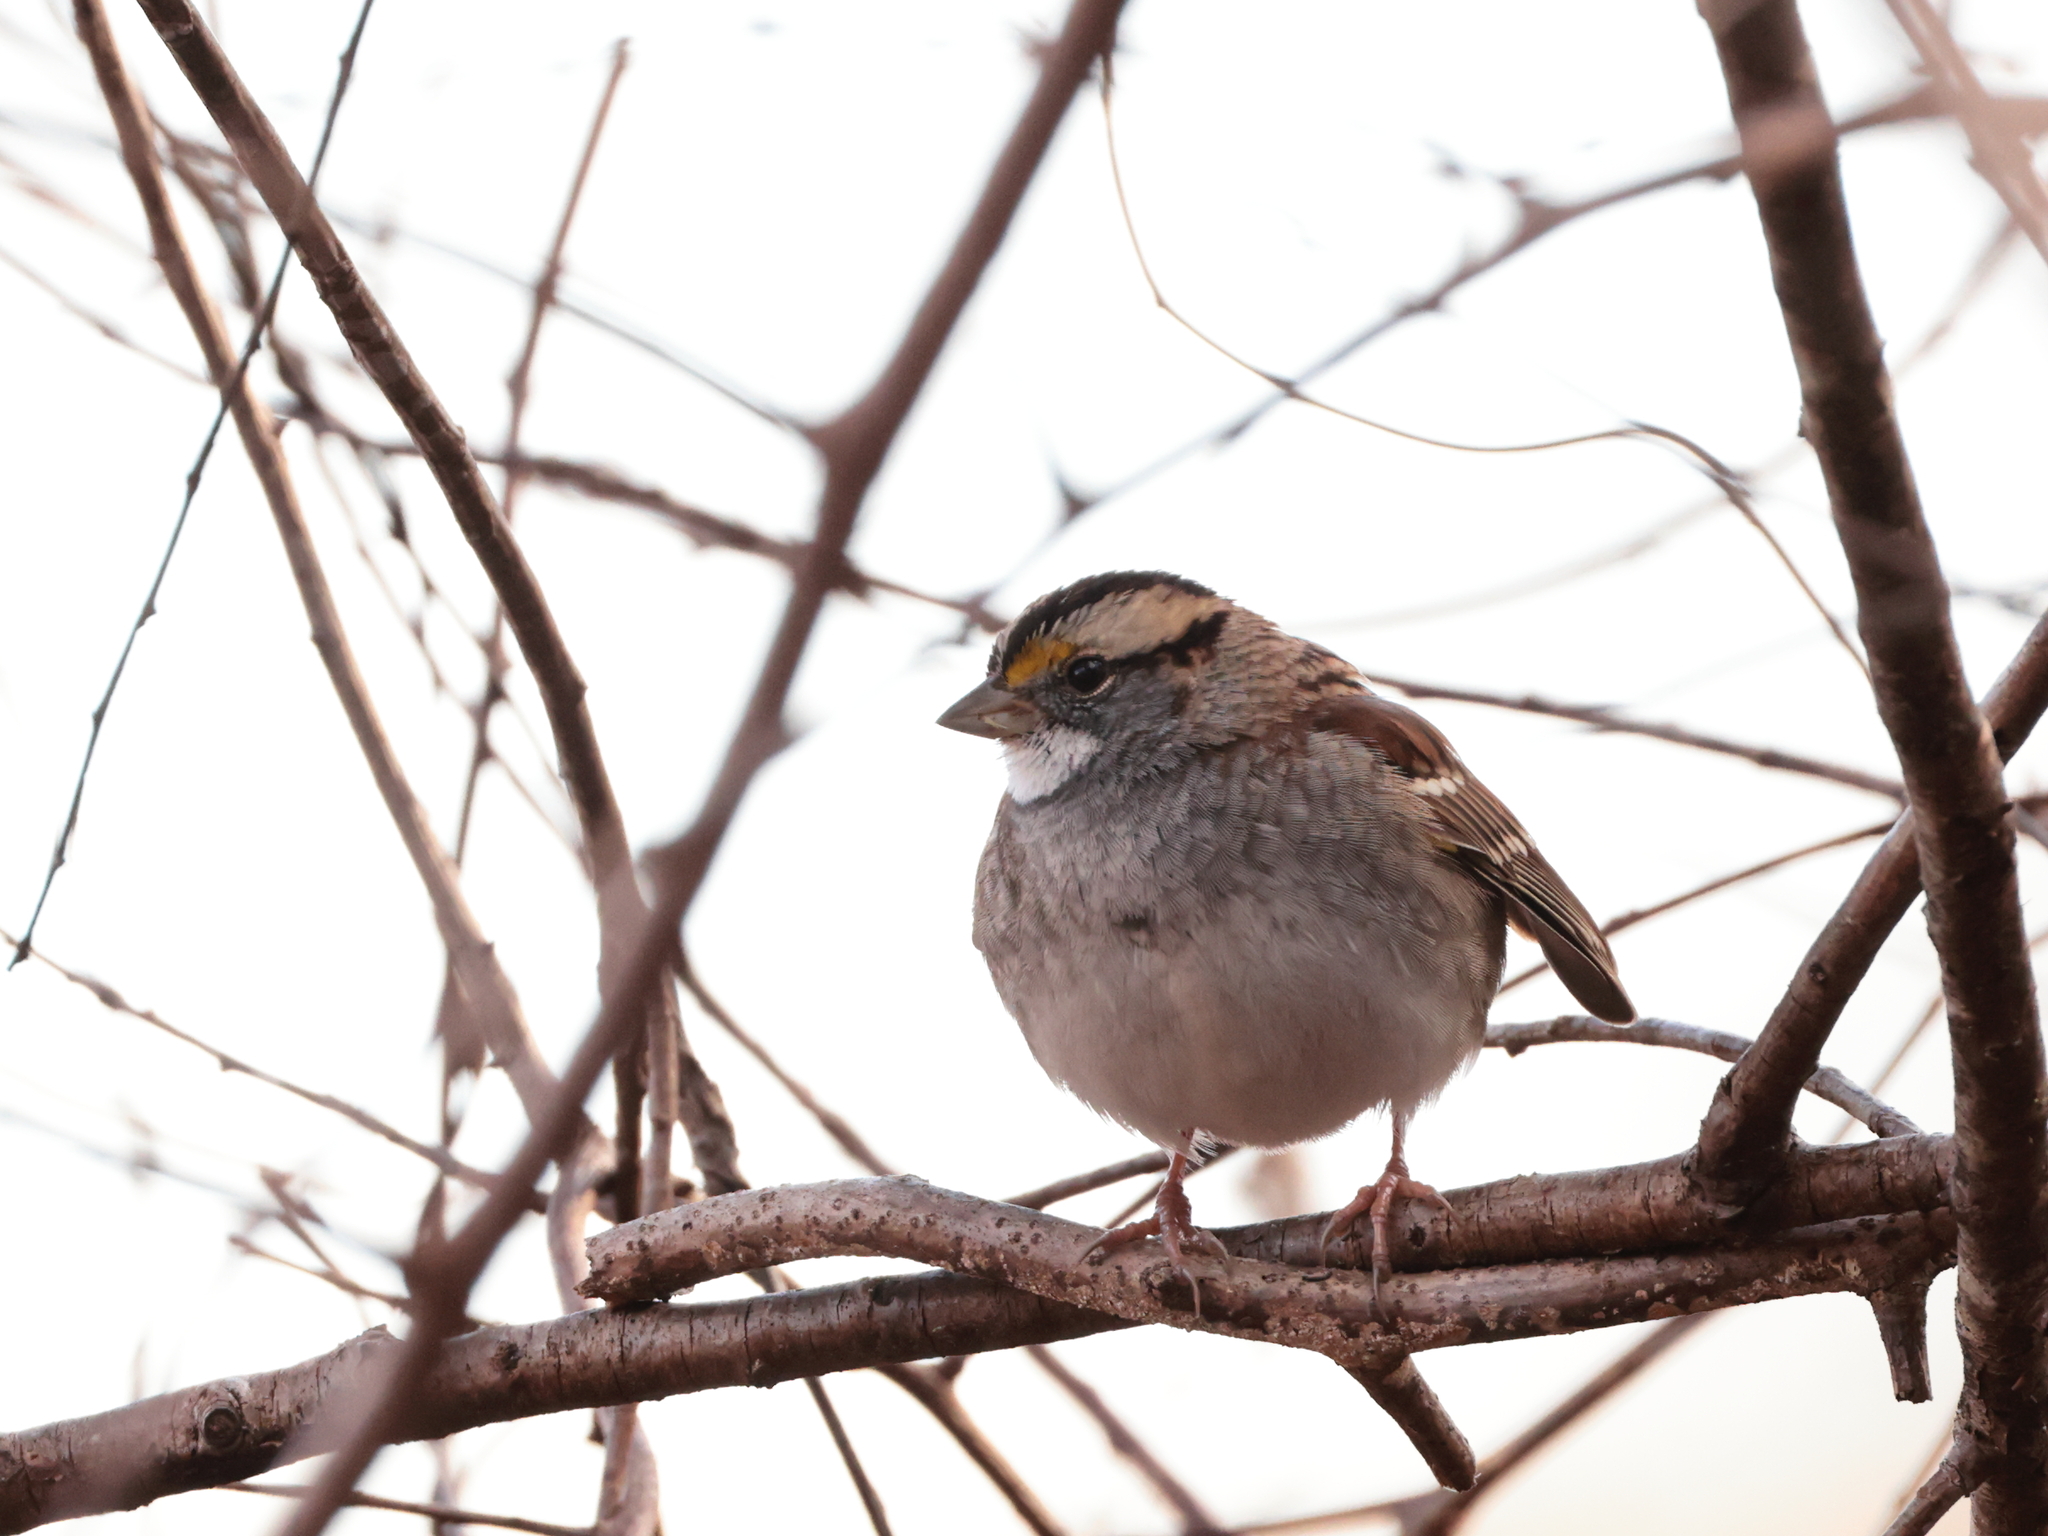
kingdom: Animalia
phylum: Chordata
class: Aves
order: Passeriformes
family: Passerellidae
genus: Zonotrichia
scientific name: Zonotrichia albicollis
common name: White-throated sparrow
